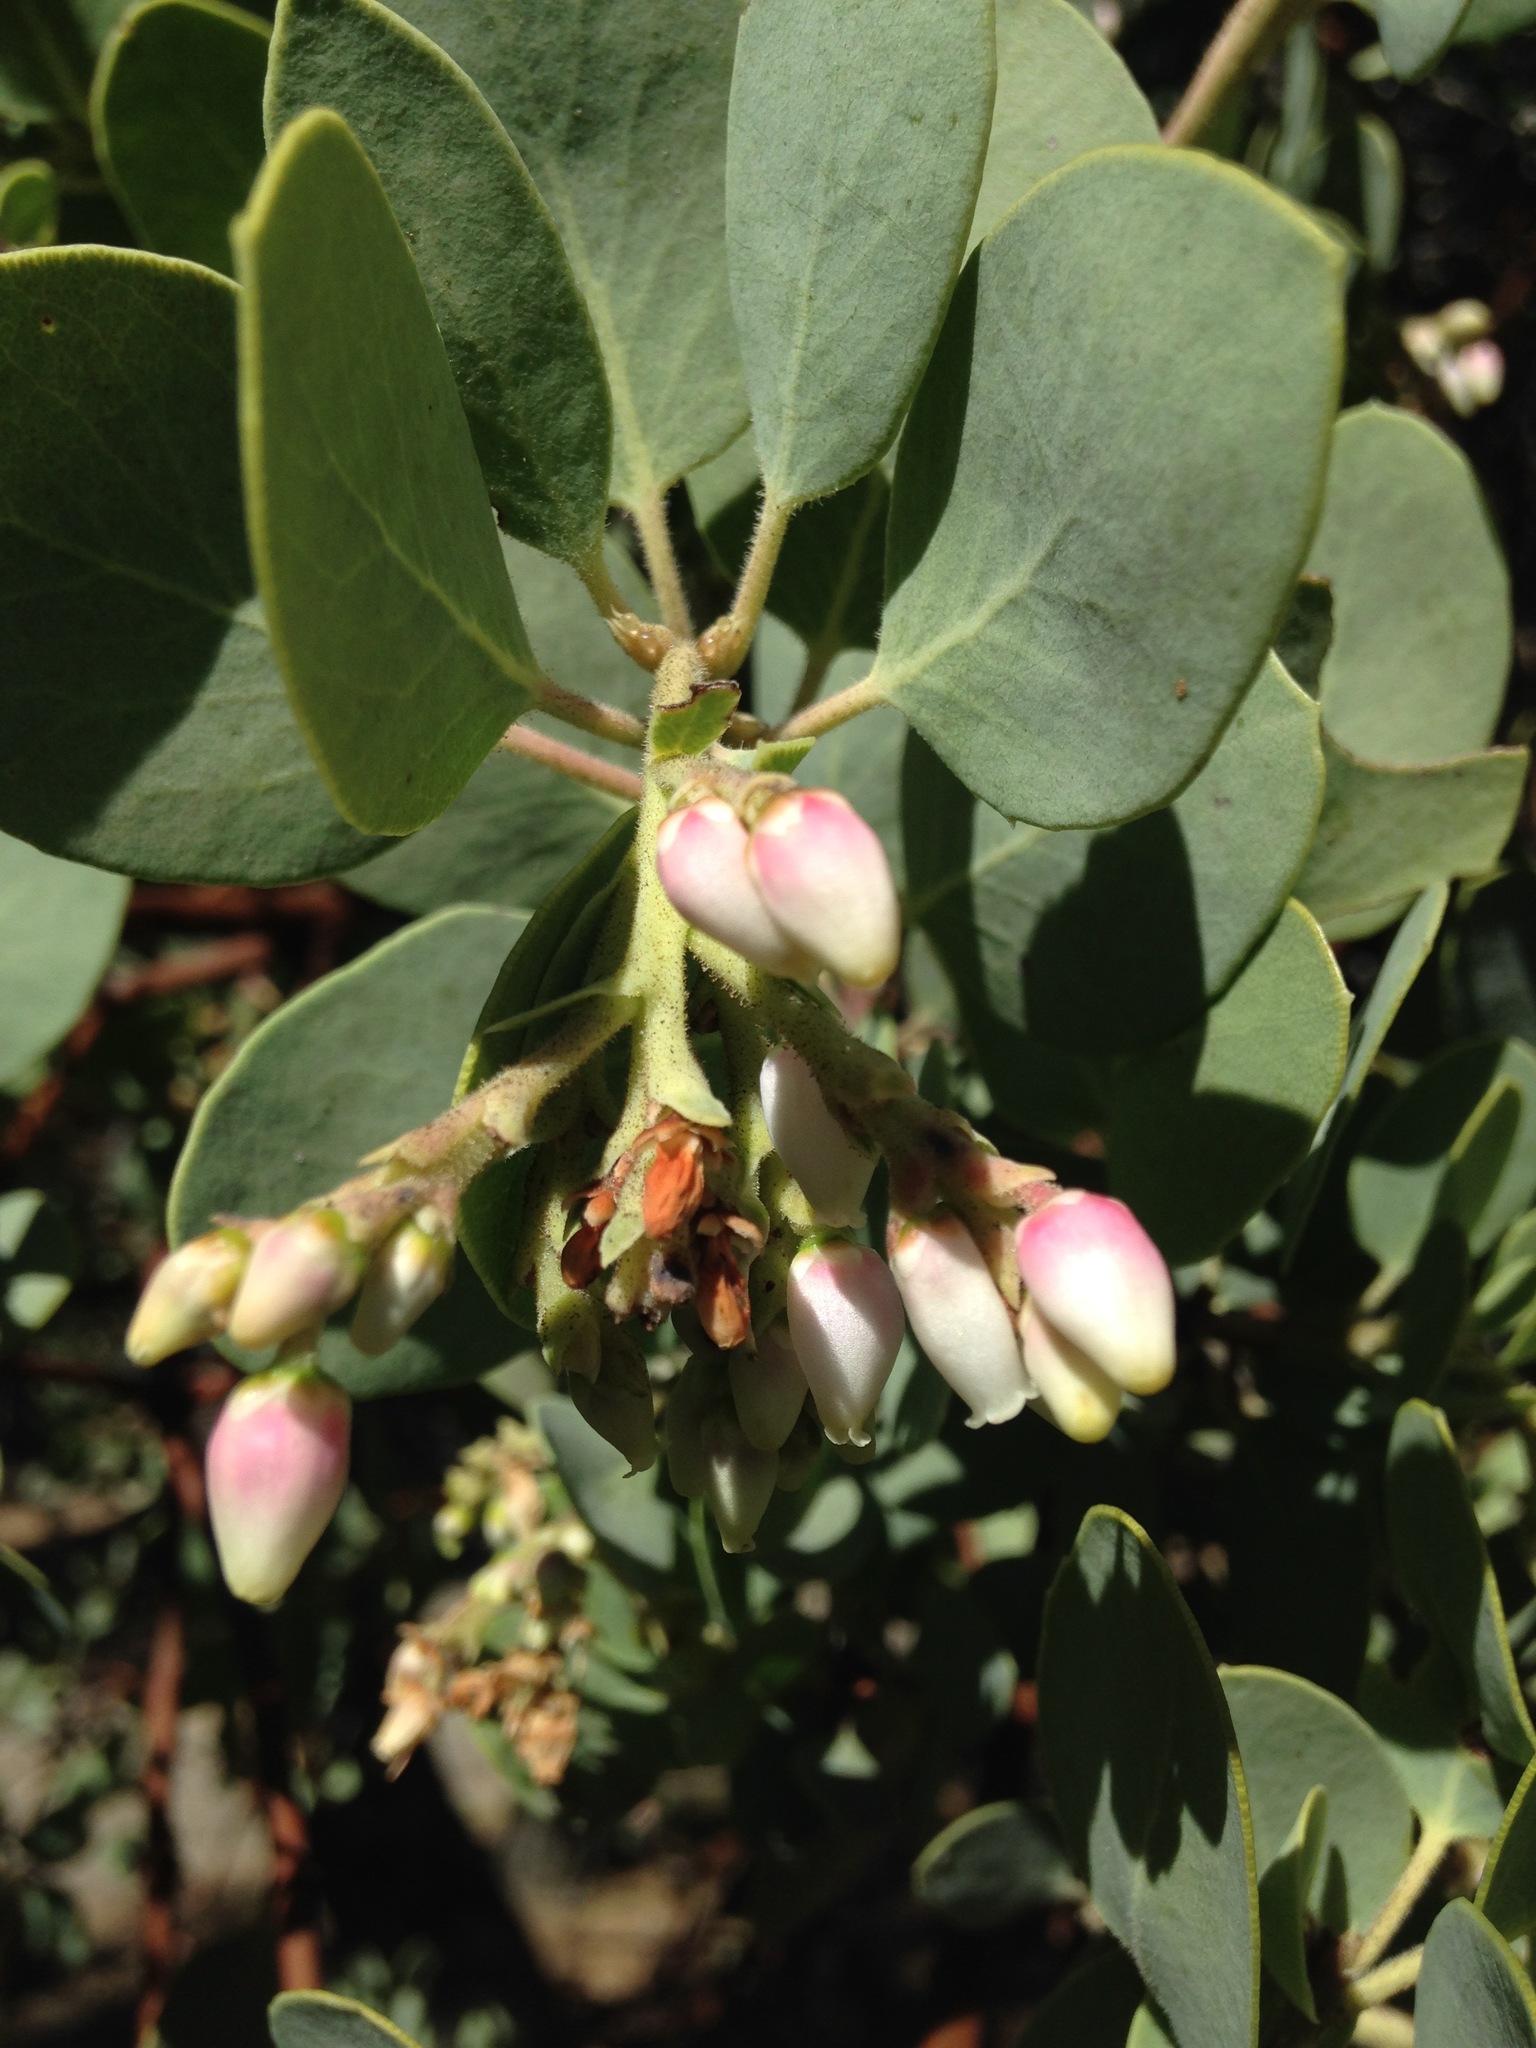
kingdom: Plantae
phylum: Tracheophyta
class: Magnoliopsida
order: Ericales
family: Ericaceae
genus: Arctostaphylos
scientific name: Arctostaphylos glauca
